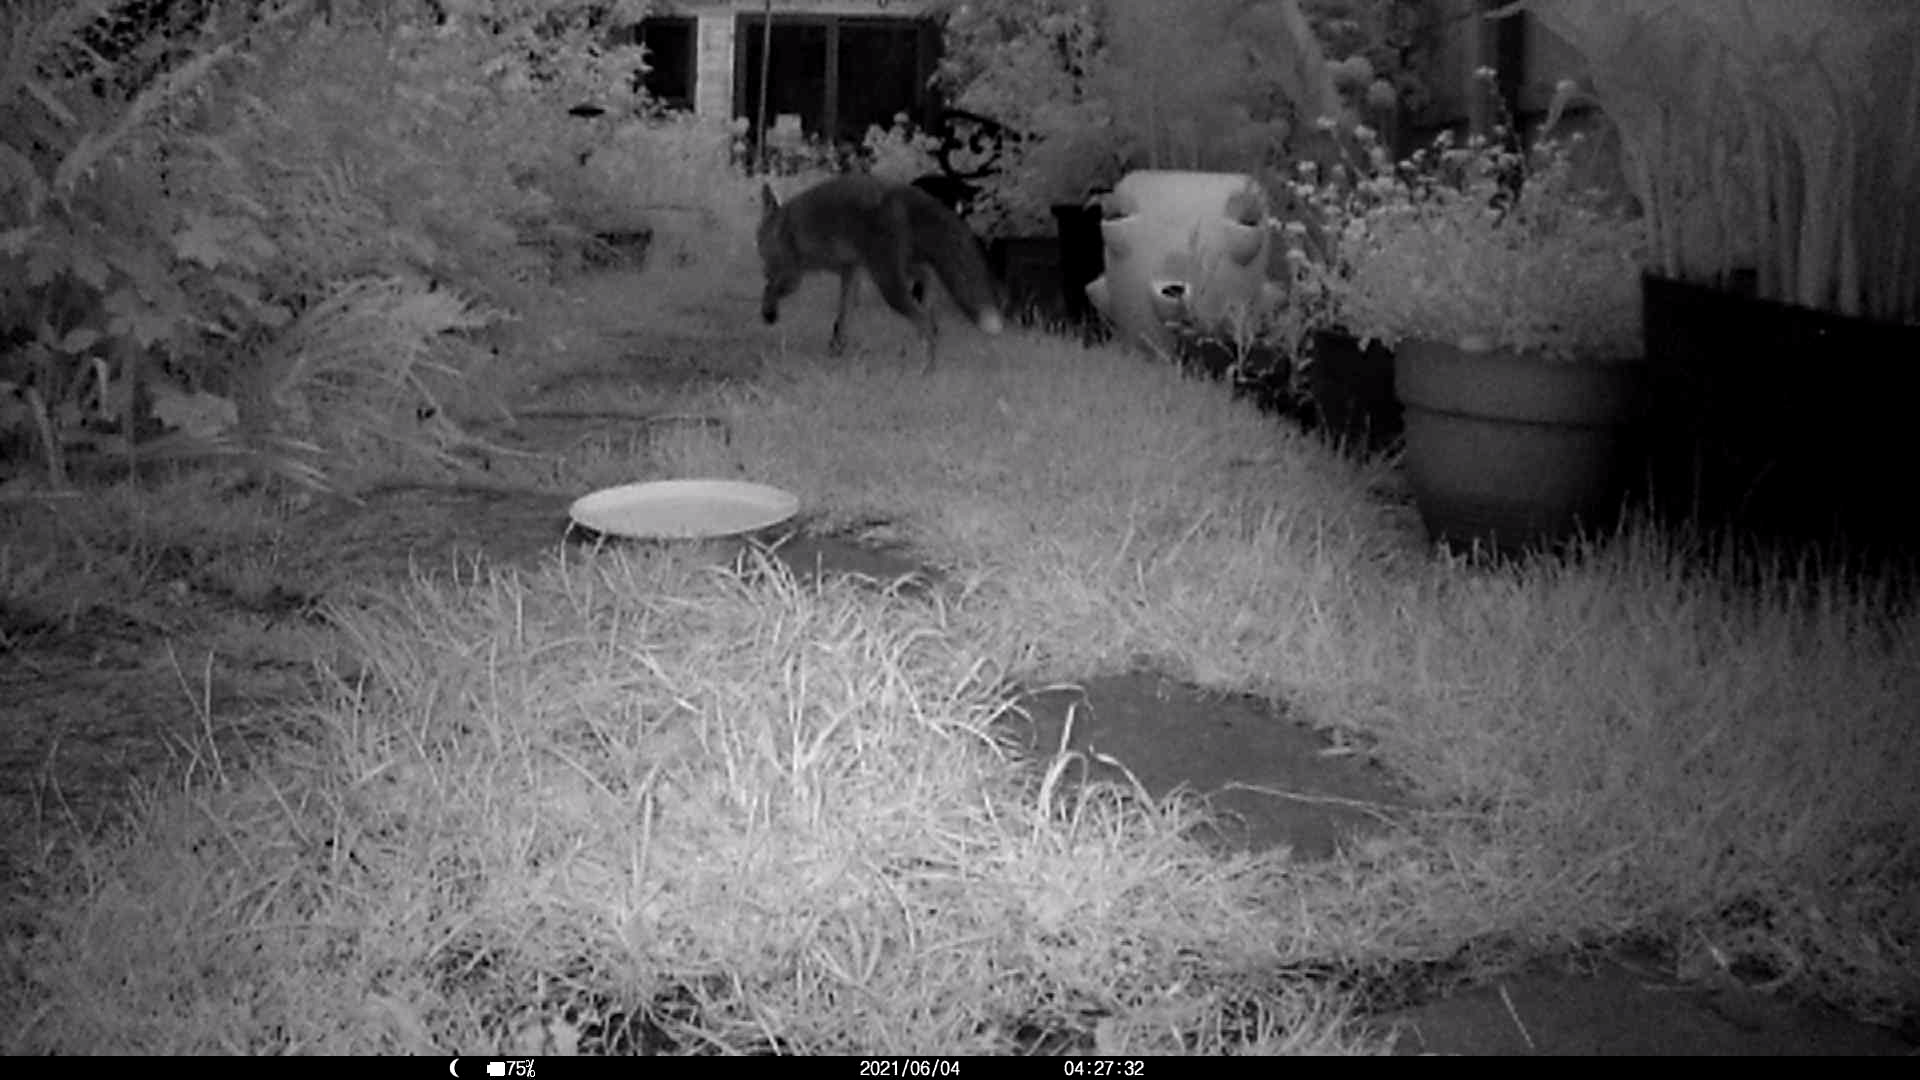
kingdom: Animalia
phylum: Chordata
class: Mammalia
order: Carnivora
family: Canidae
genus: Vulpes
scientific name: Vulpes vulpes
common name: Red fox
